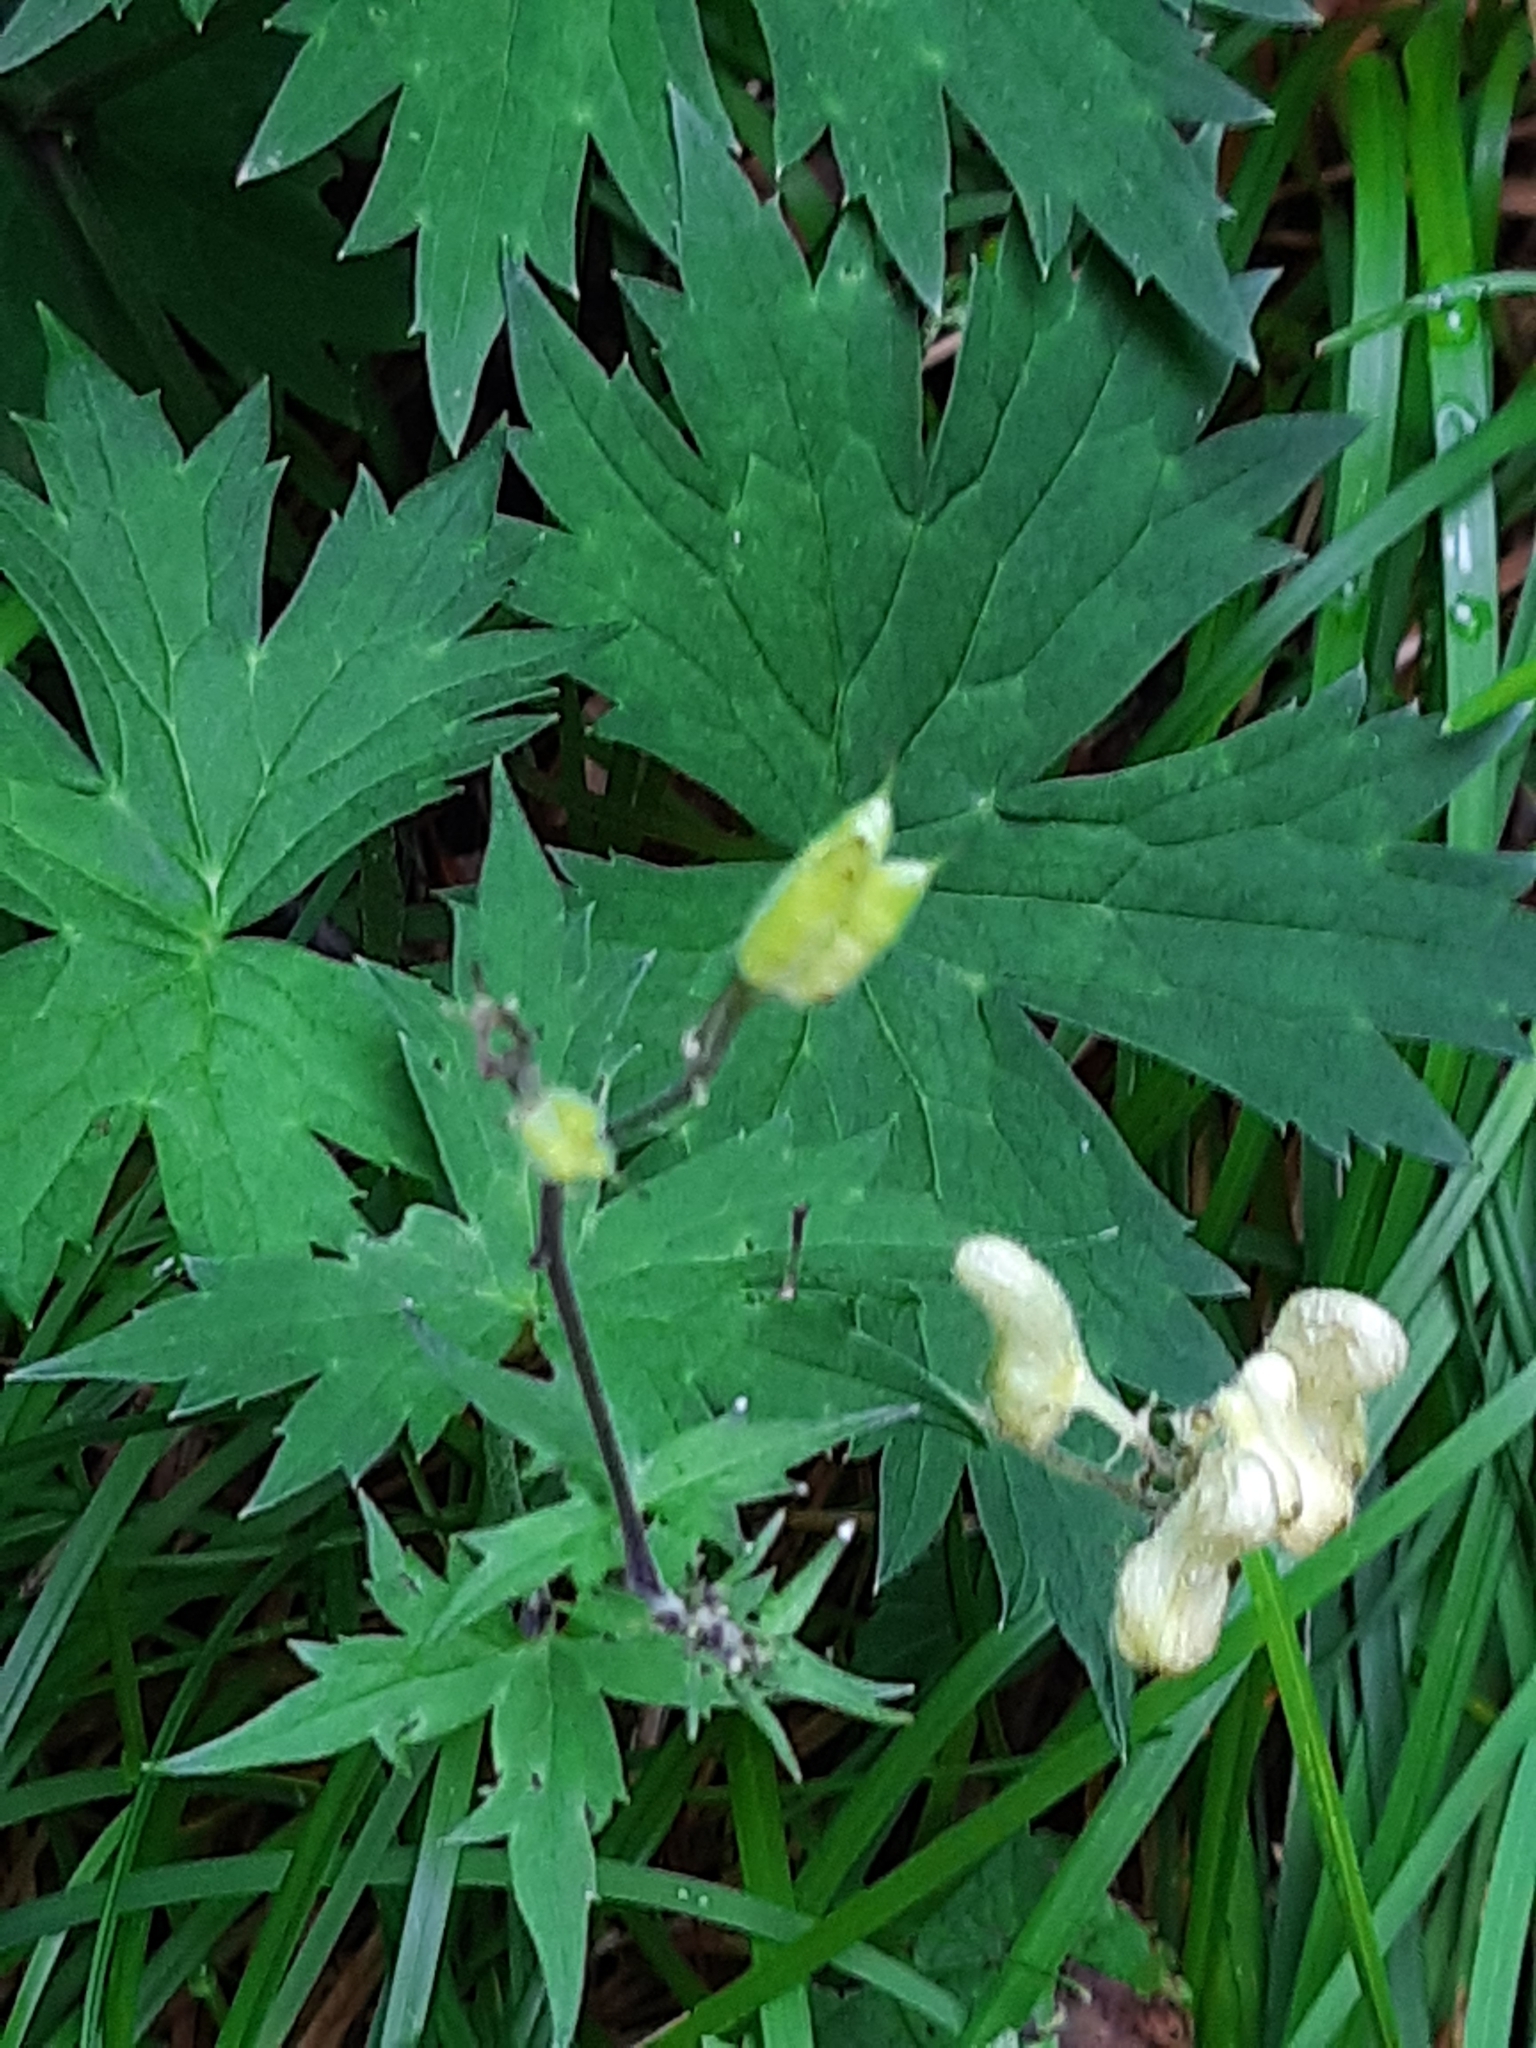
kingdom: Plantae
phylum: Tracheophyta
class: Magnoliopsida
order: Ranunculales
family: Ranunculaceae
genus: Aconitum
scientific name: Aconitum lycoctonum
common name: Wolf's-bane
